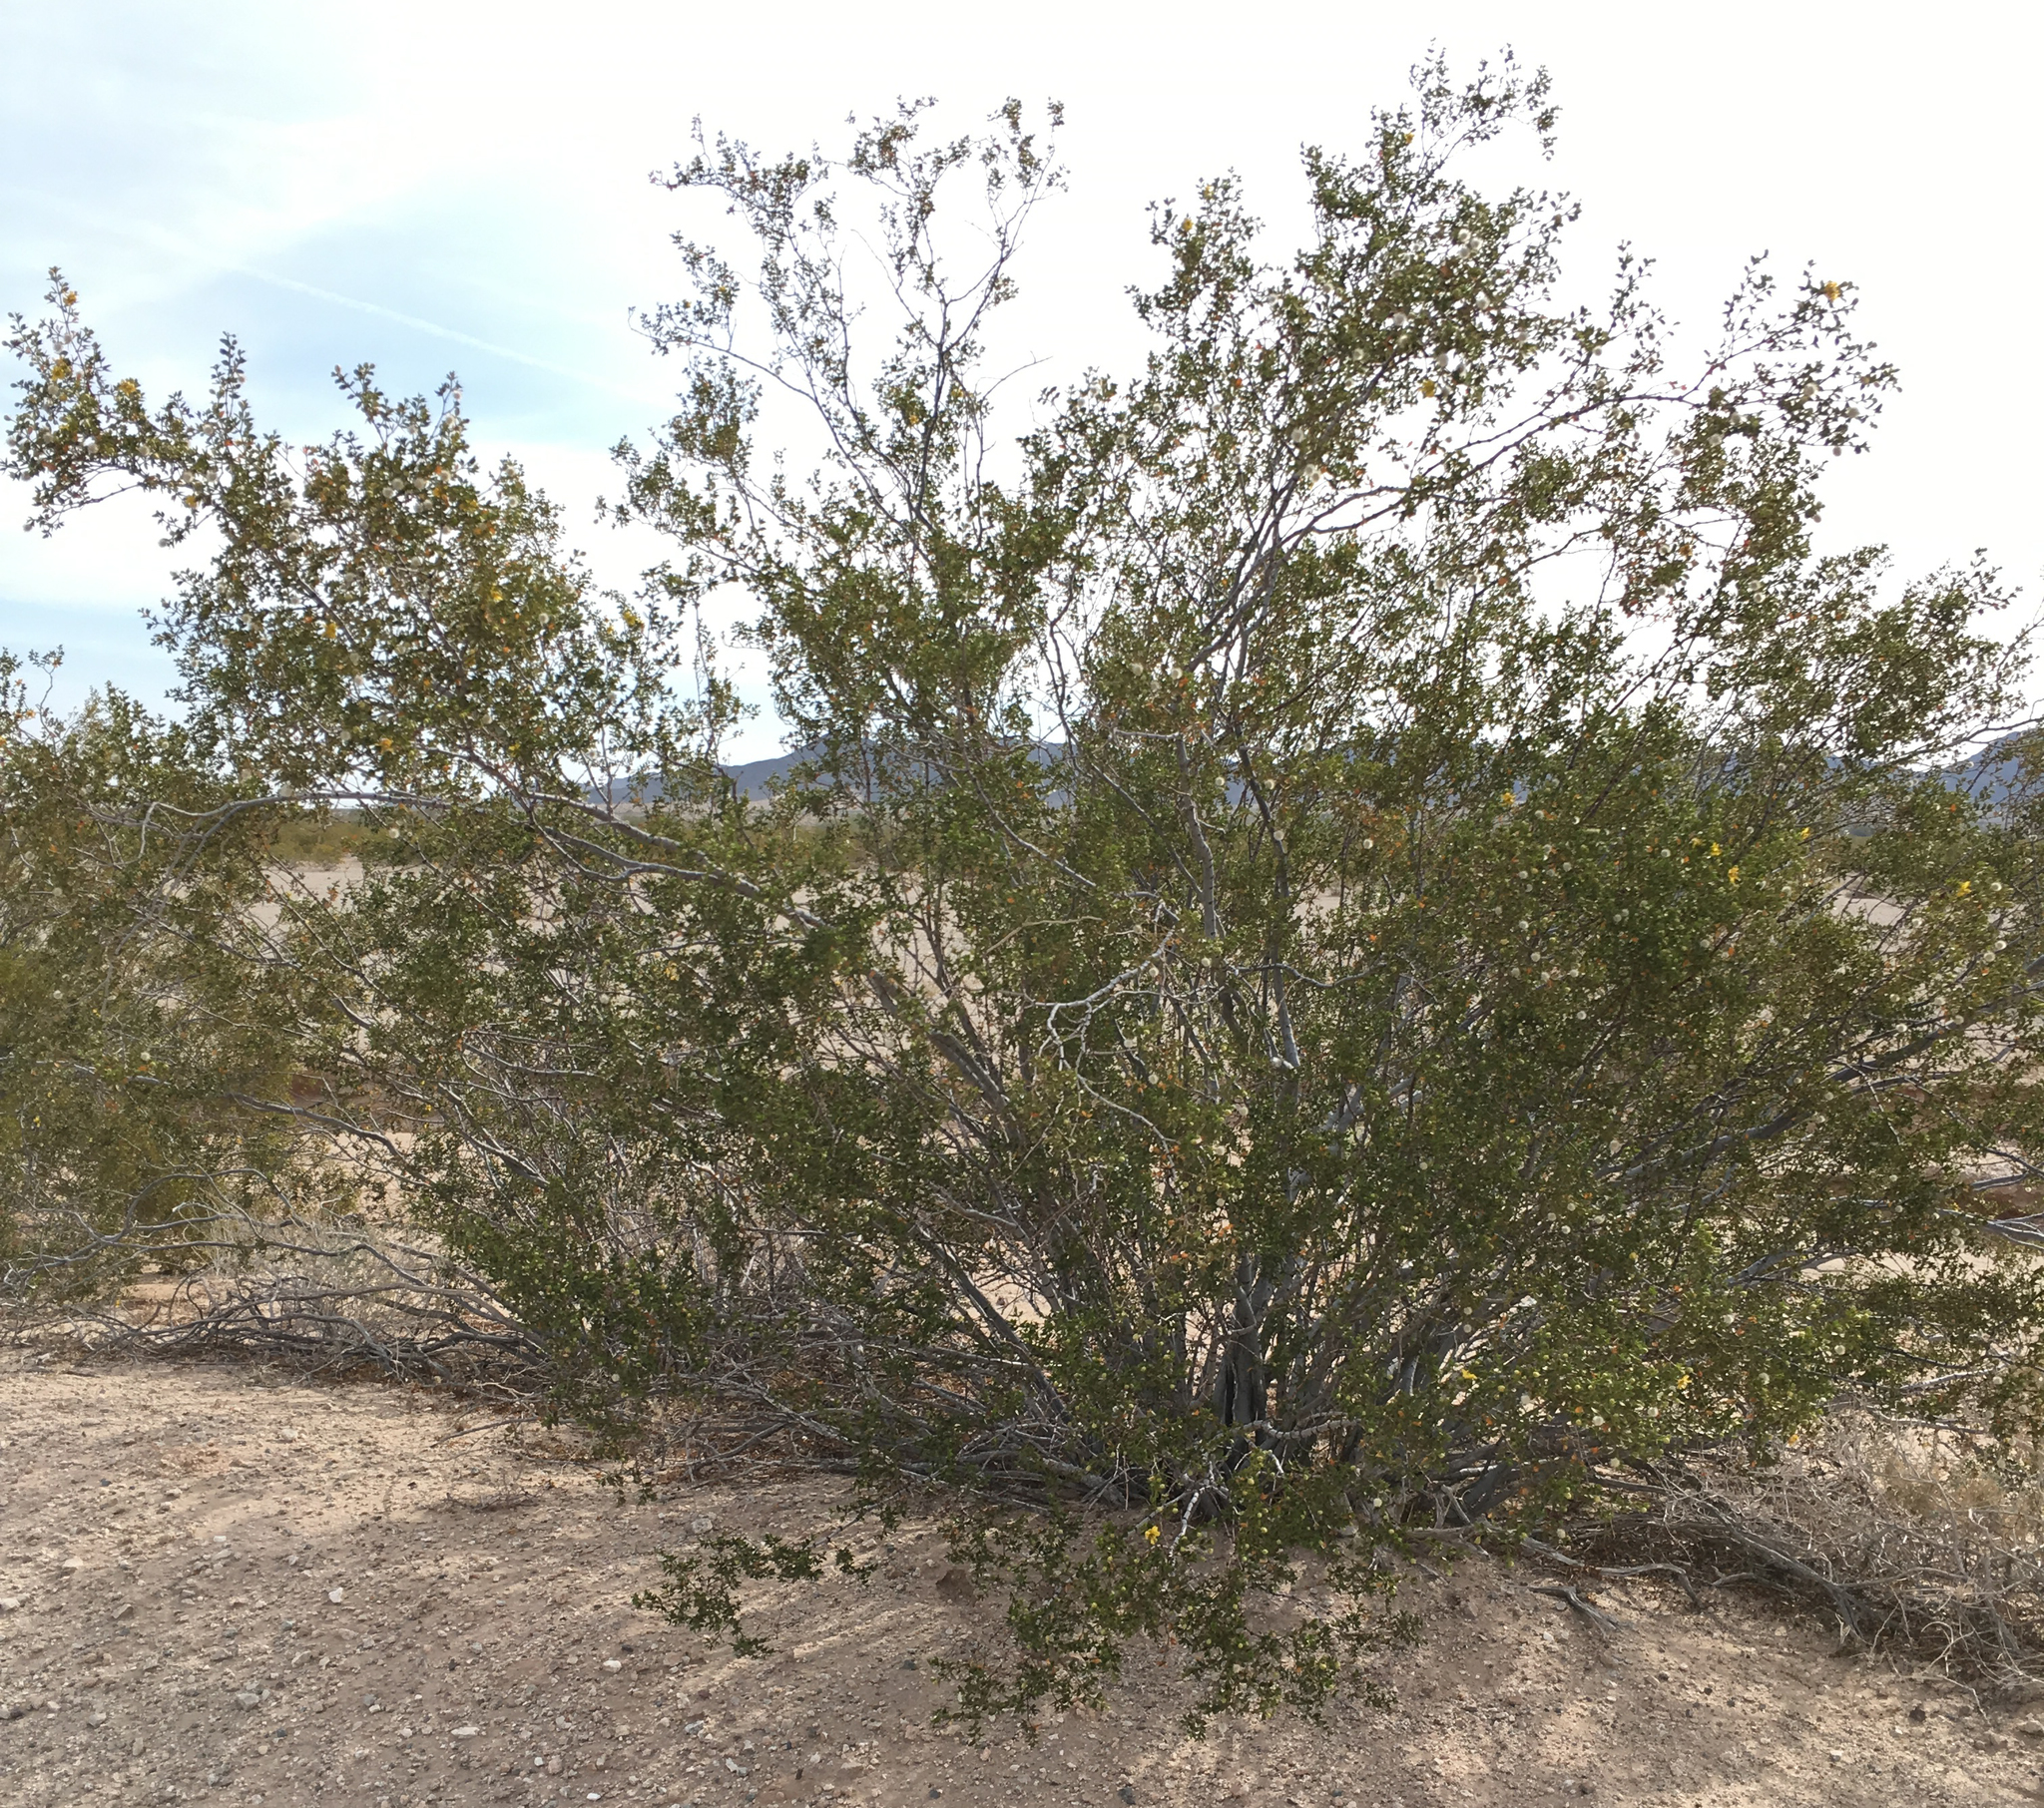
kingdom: Plantae
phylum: Tracheophyta
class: Magnoliopsida
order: Zygophyllales
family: Zygophyllaceae
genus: Larrea
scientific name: Larrea tridentata
